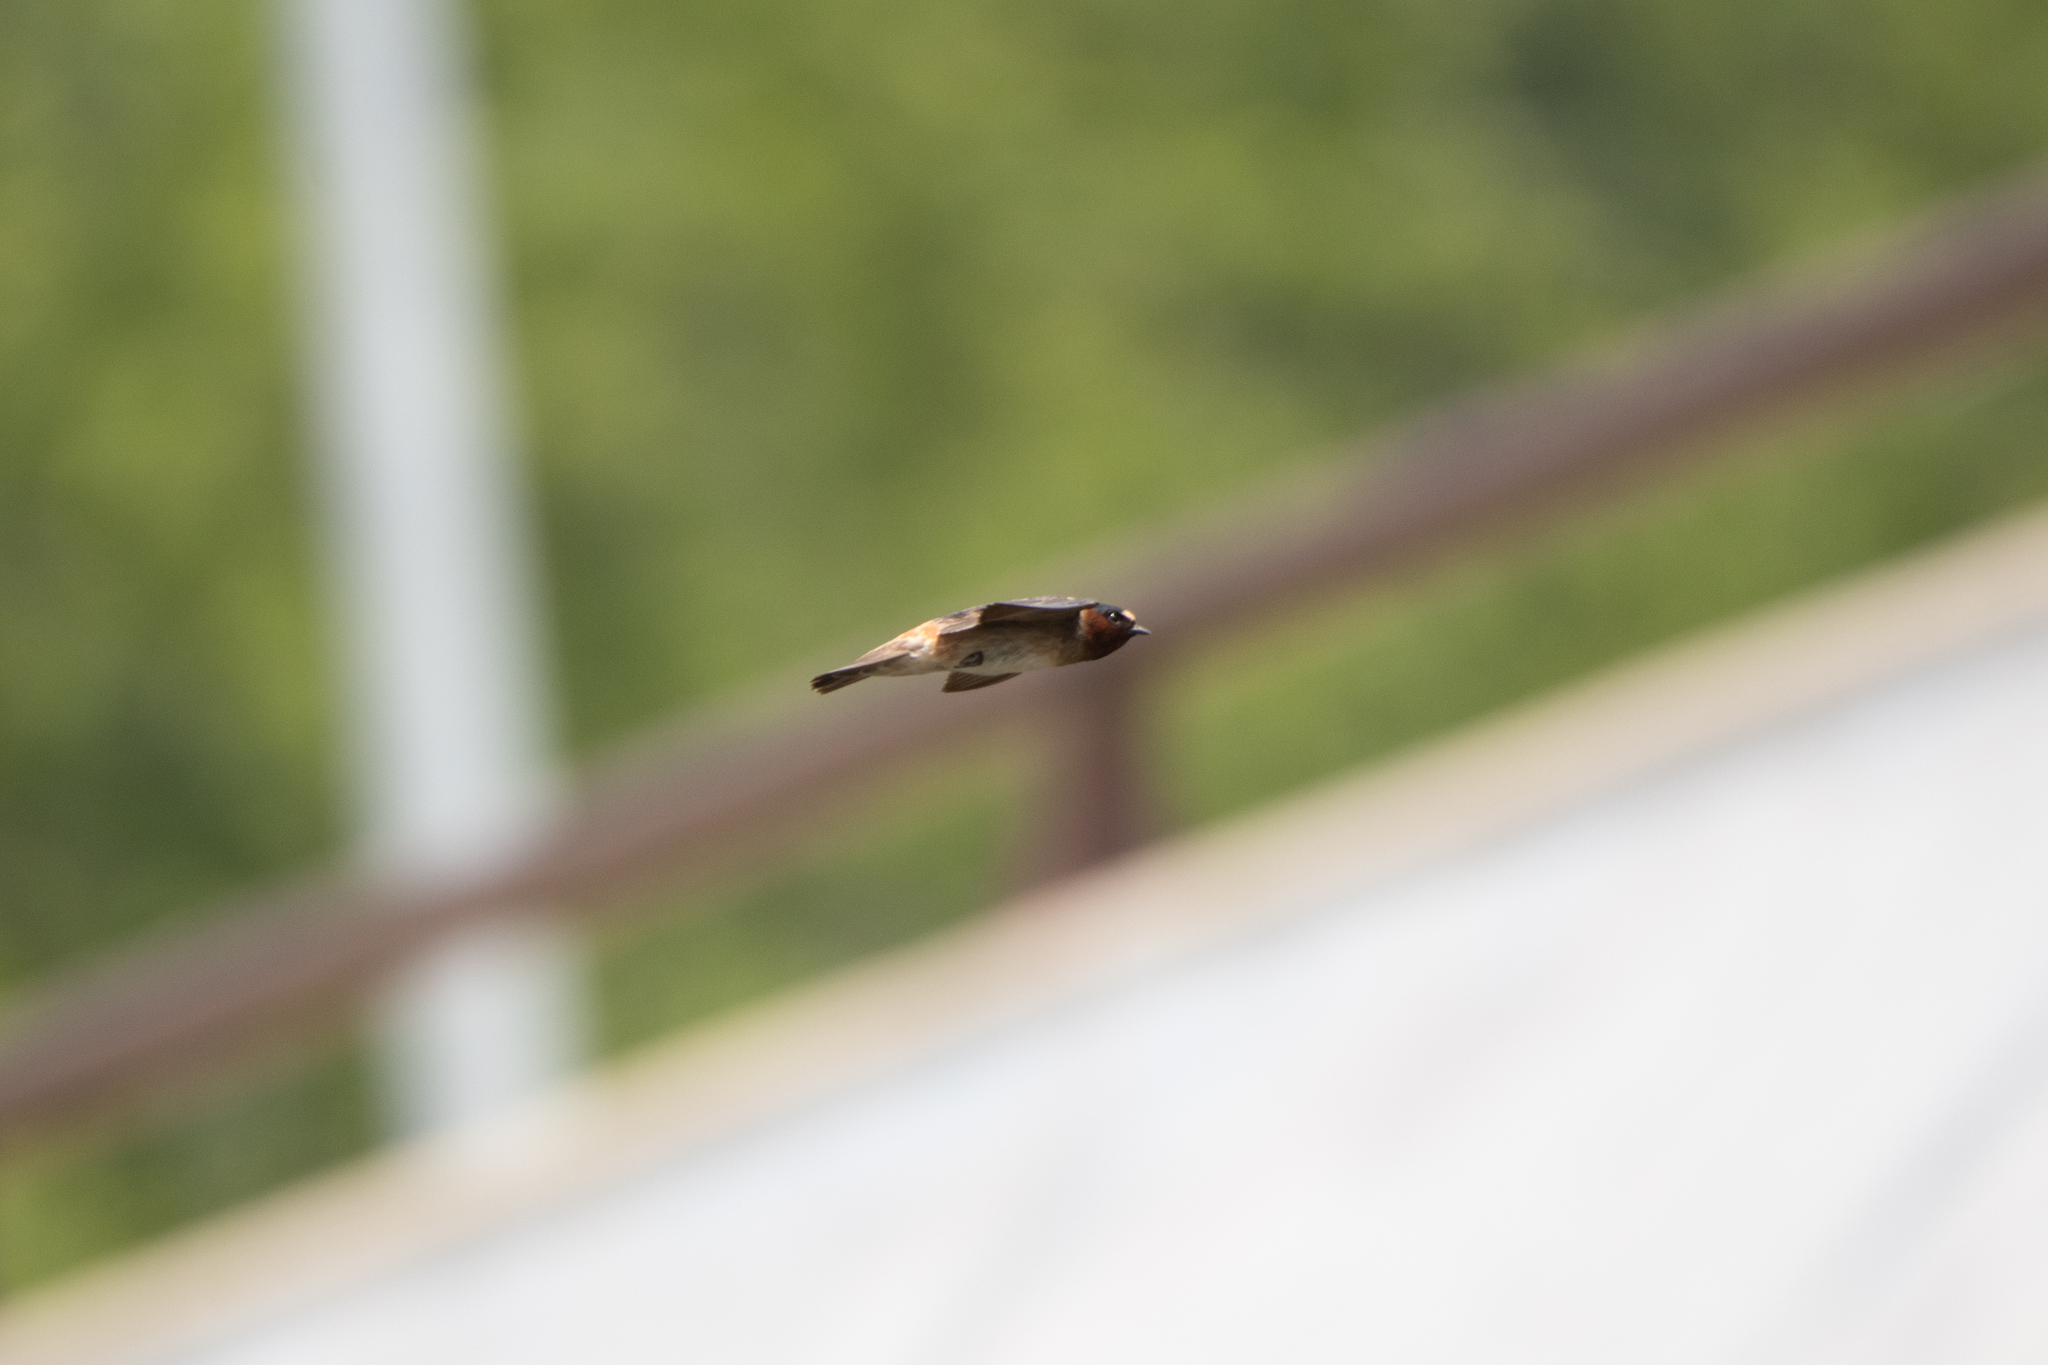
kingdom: Animalia
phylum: Chordata
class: Aves
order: Passeriformes
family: Hirundinidae
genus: Petrochelidon
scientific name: Petrochelidon pyrrhonota
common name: American cliff swallow
